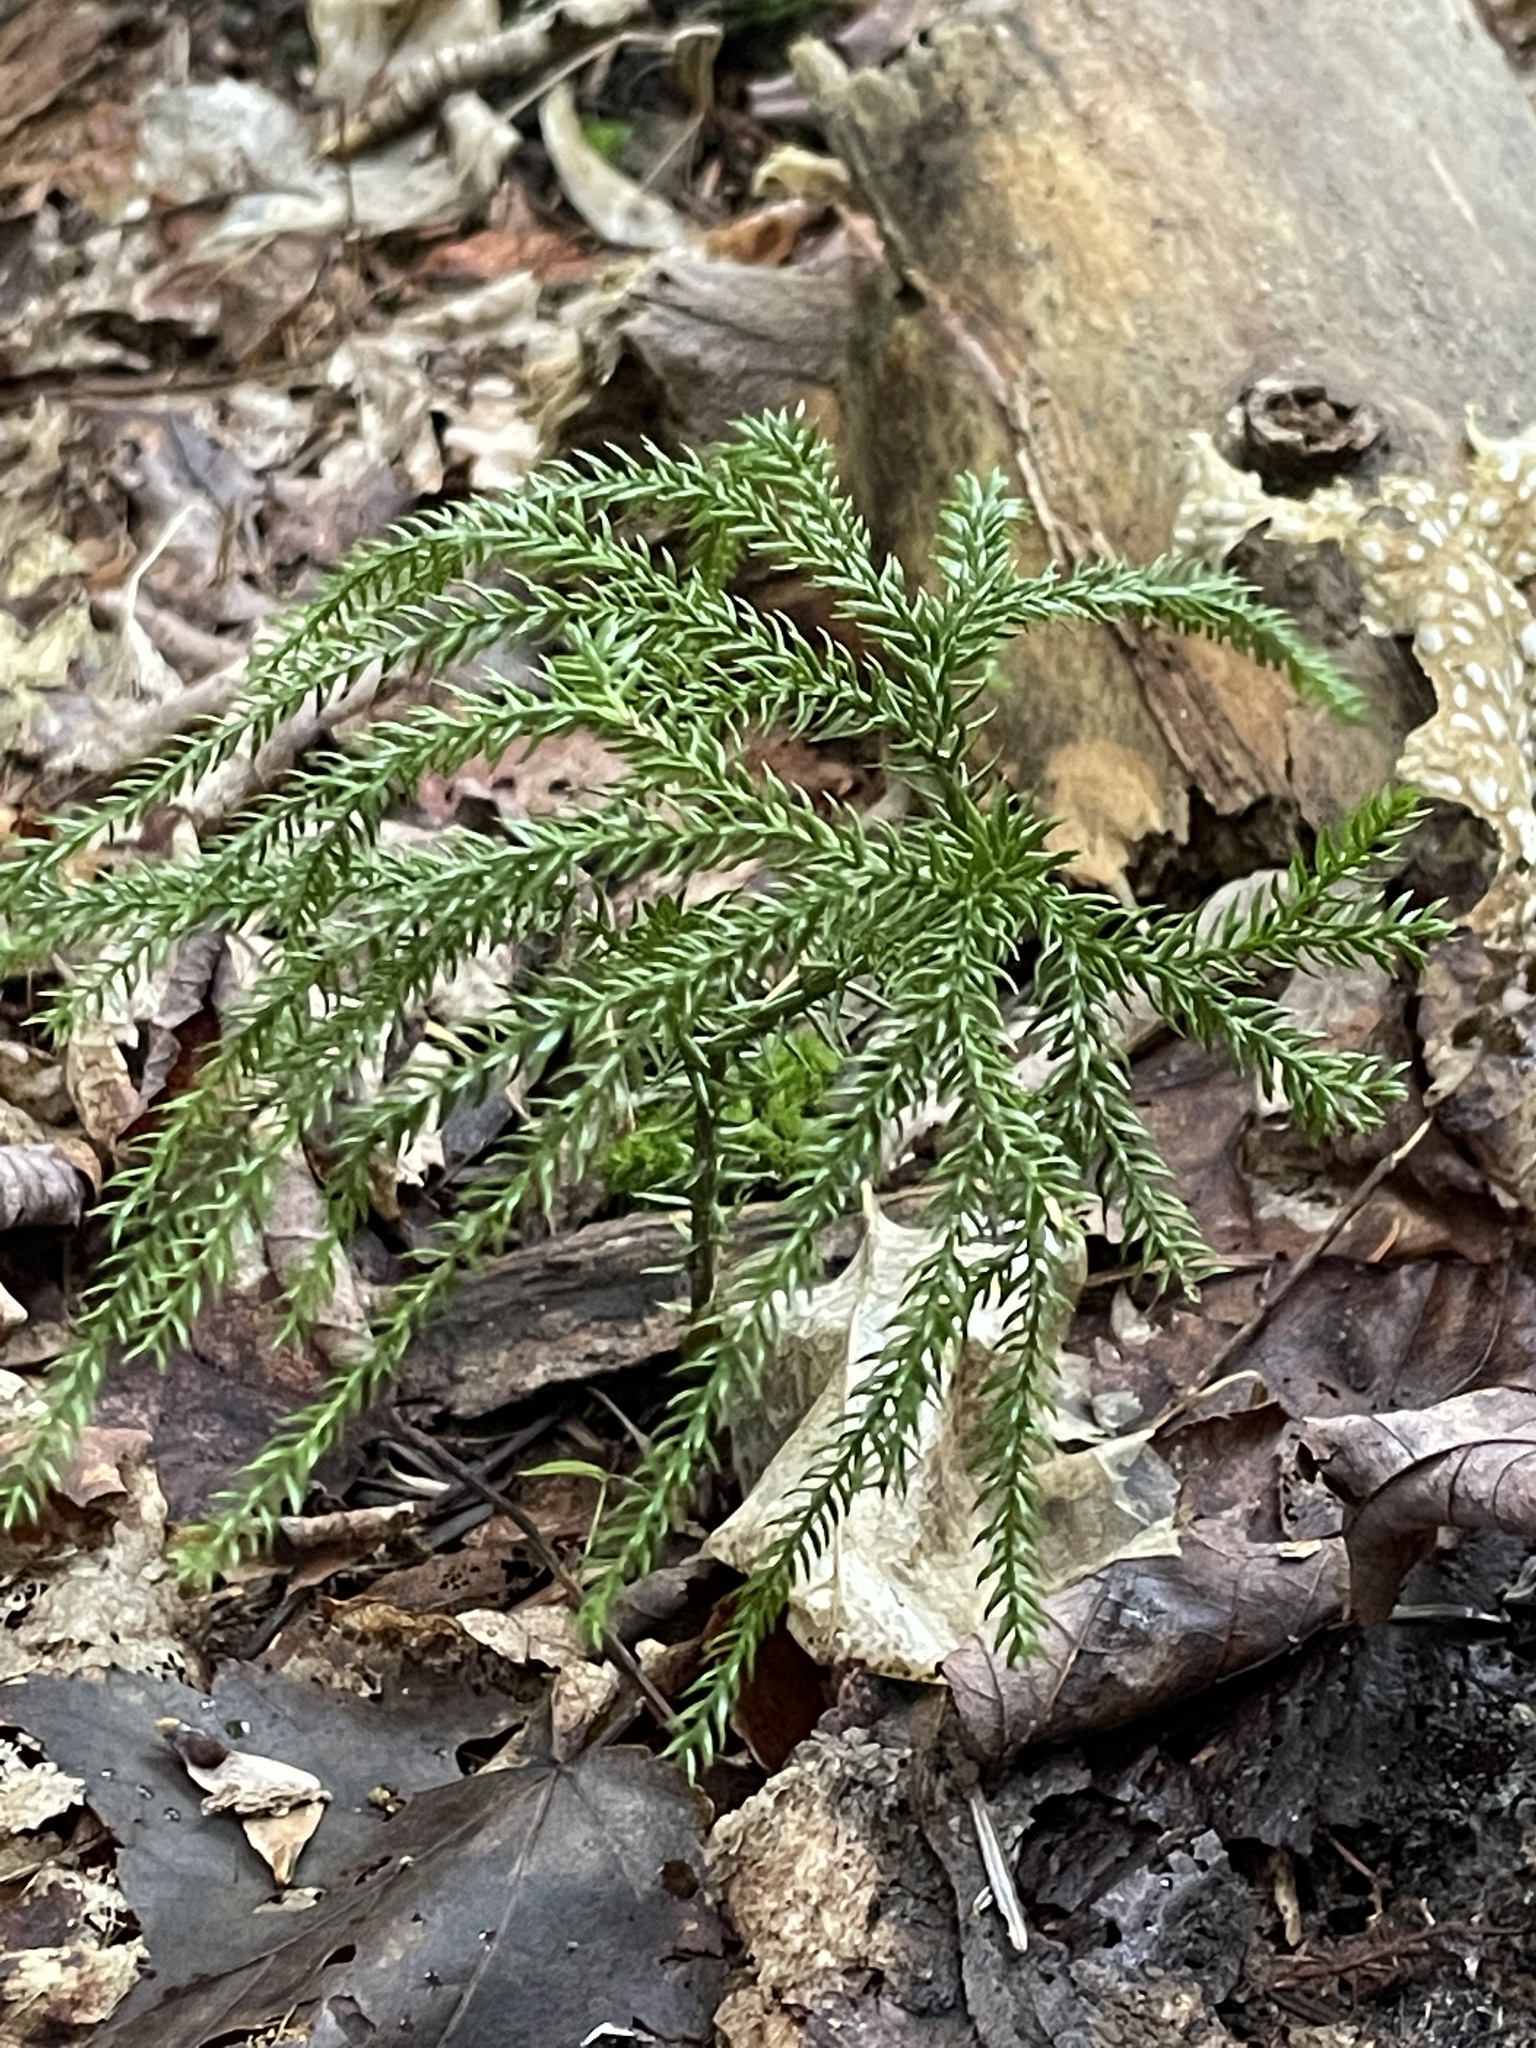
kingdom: Plantae
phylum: Tracheophyta
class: Lycopodiopsida
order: Lycopodiales
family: Lycopodiaceae
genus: Dendrolycopodium
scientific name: Dendrolycopodium dendroideum
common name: Northern tree-clubmoss
